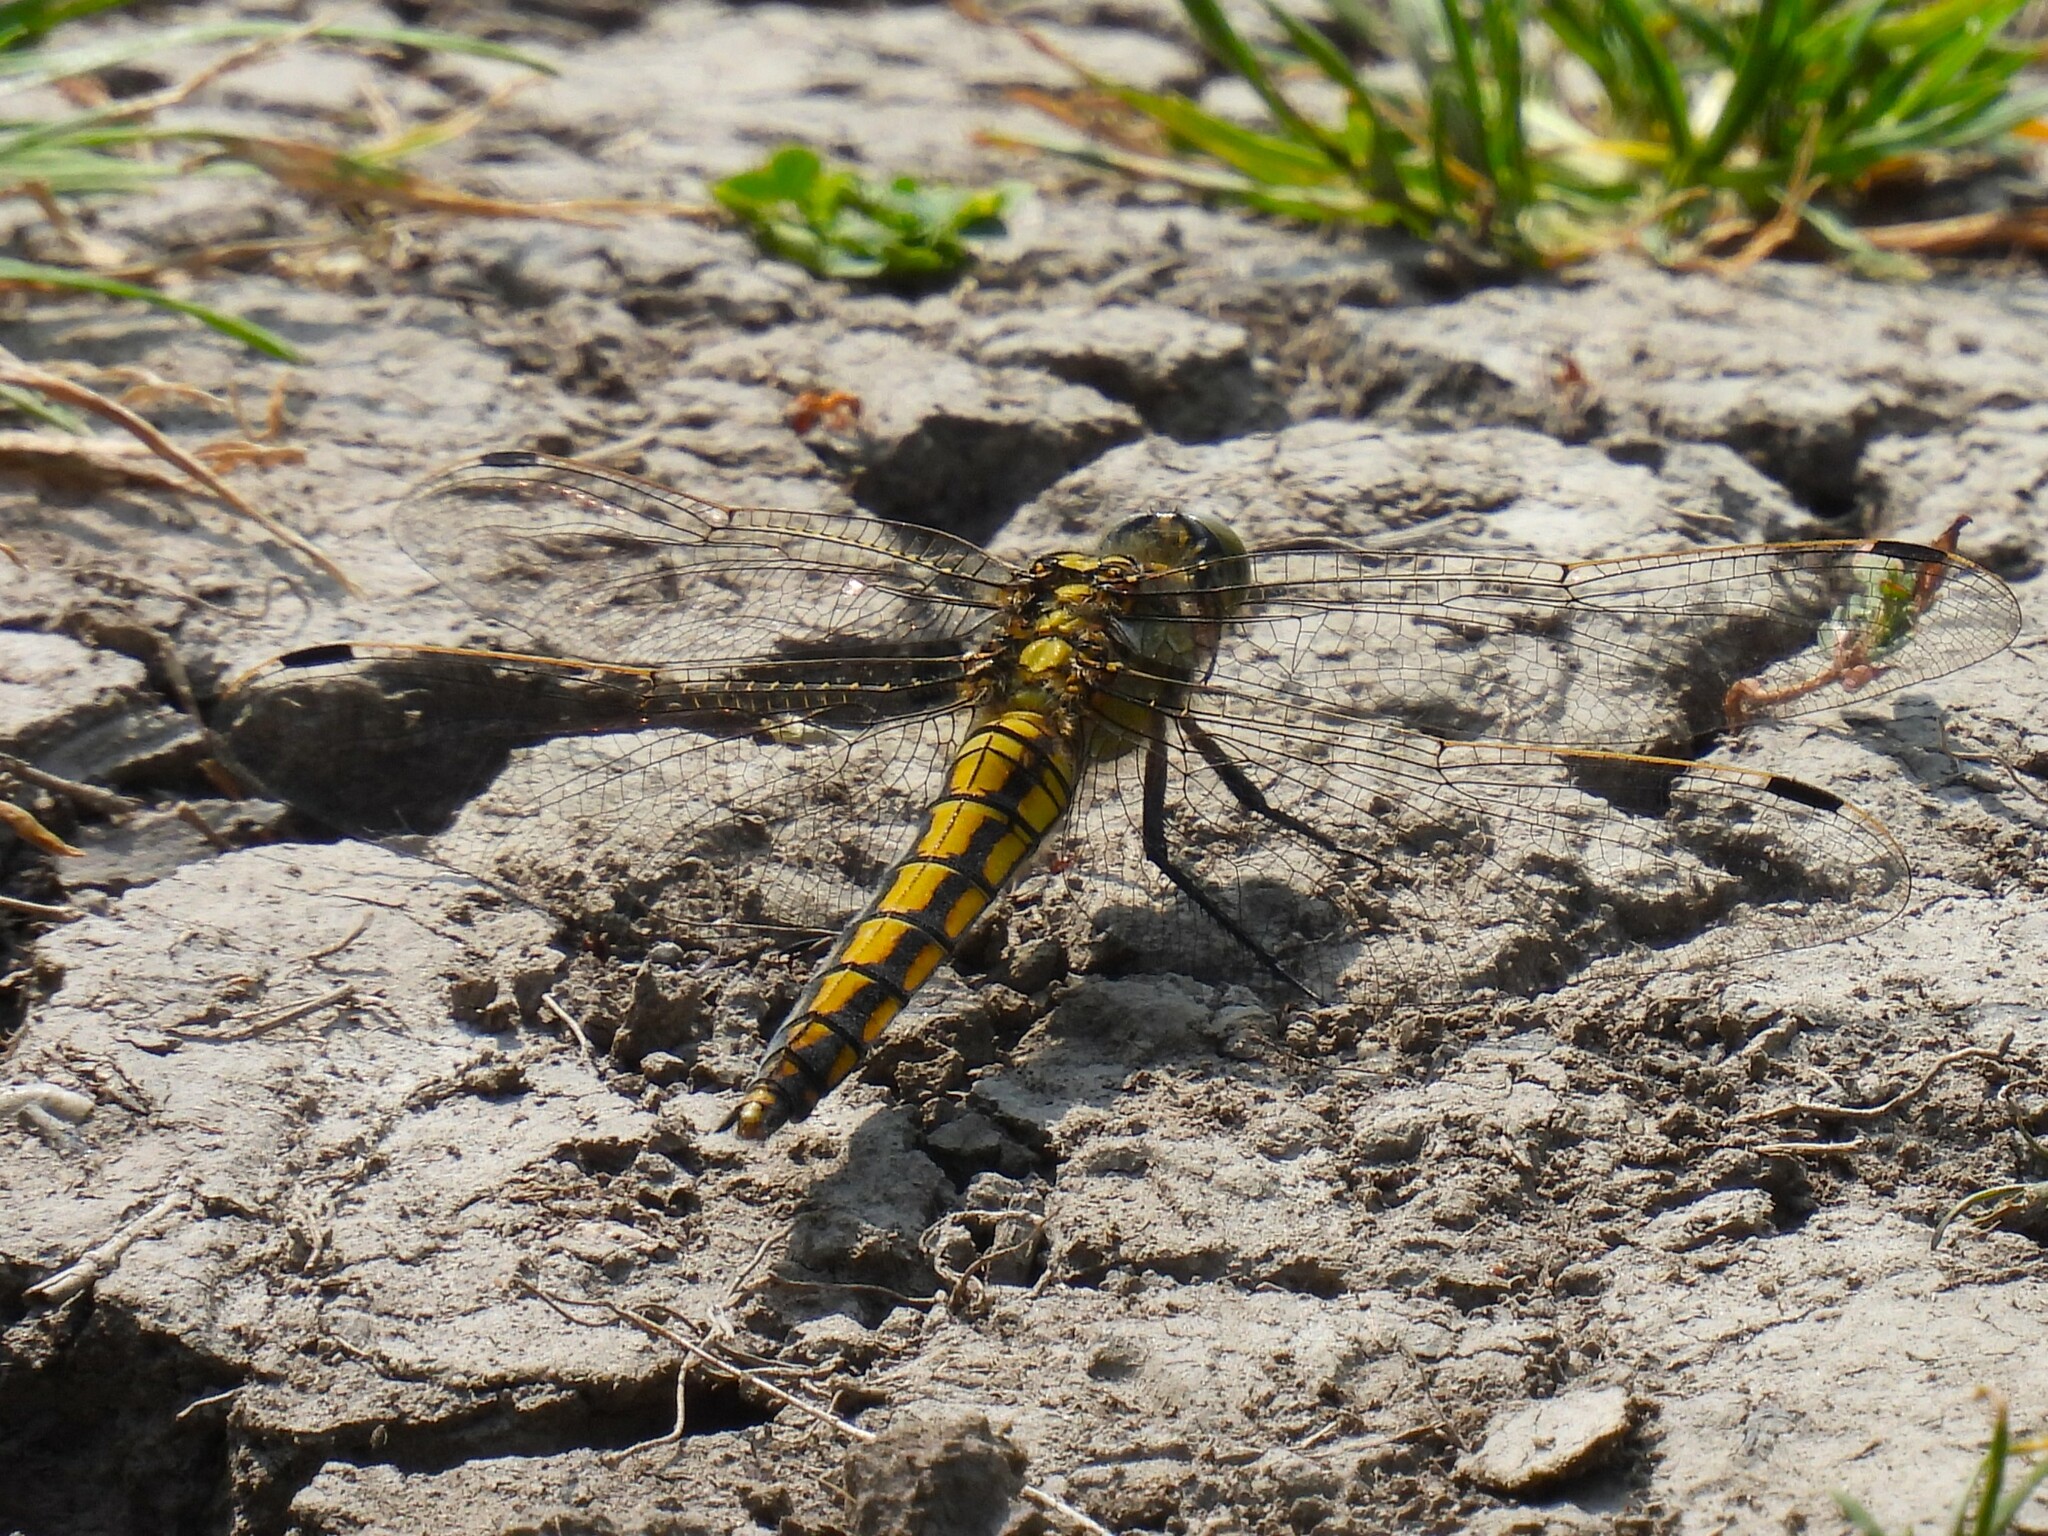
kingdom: Animalia
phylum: Arthropoda
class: Insecta
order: Odonata
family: Libellulidae
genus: Orthetrum
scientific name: Orthetrum cancellatum
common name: Black-tailed skimmer
